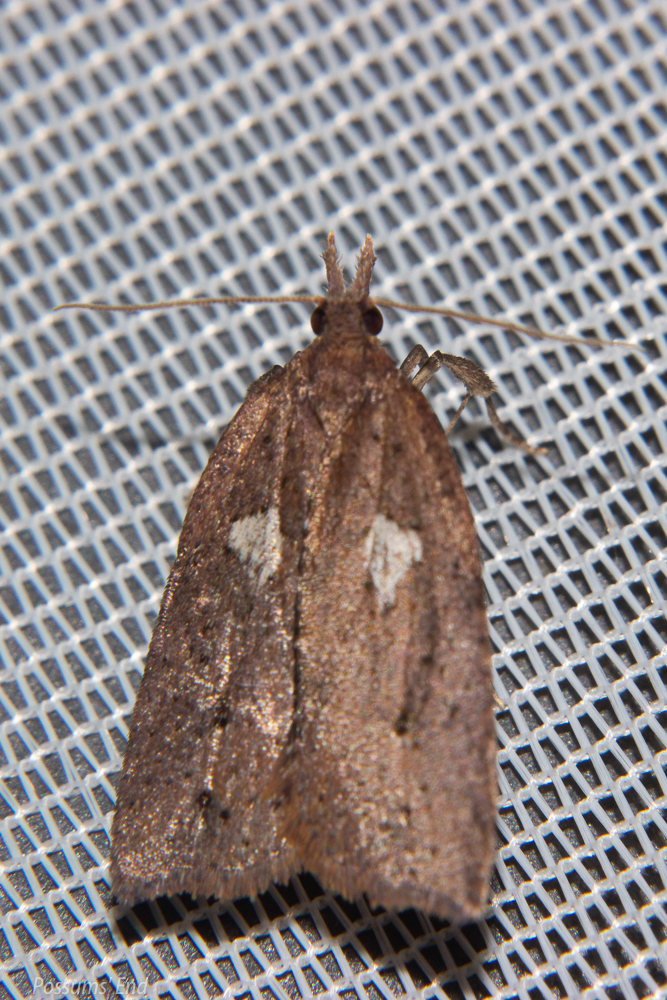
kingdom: Animalia
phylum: Arthropoda
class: Insecta
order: Lepidoptera
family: Tortricidae
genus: Planotortrix
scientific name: Planotortrix excessana
